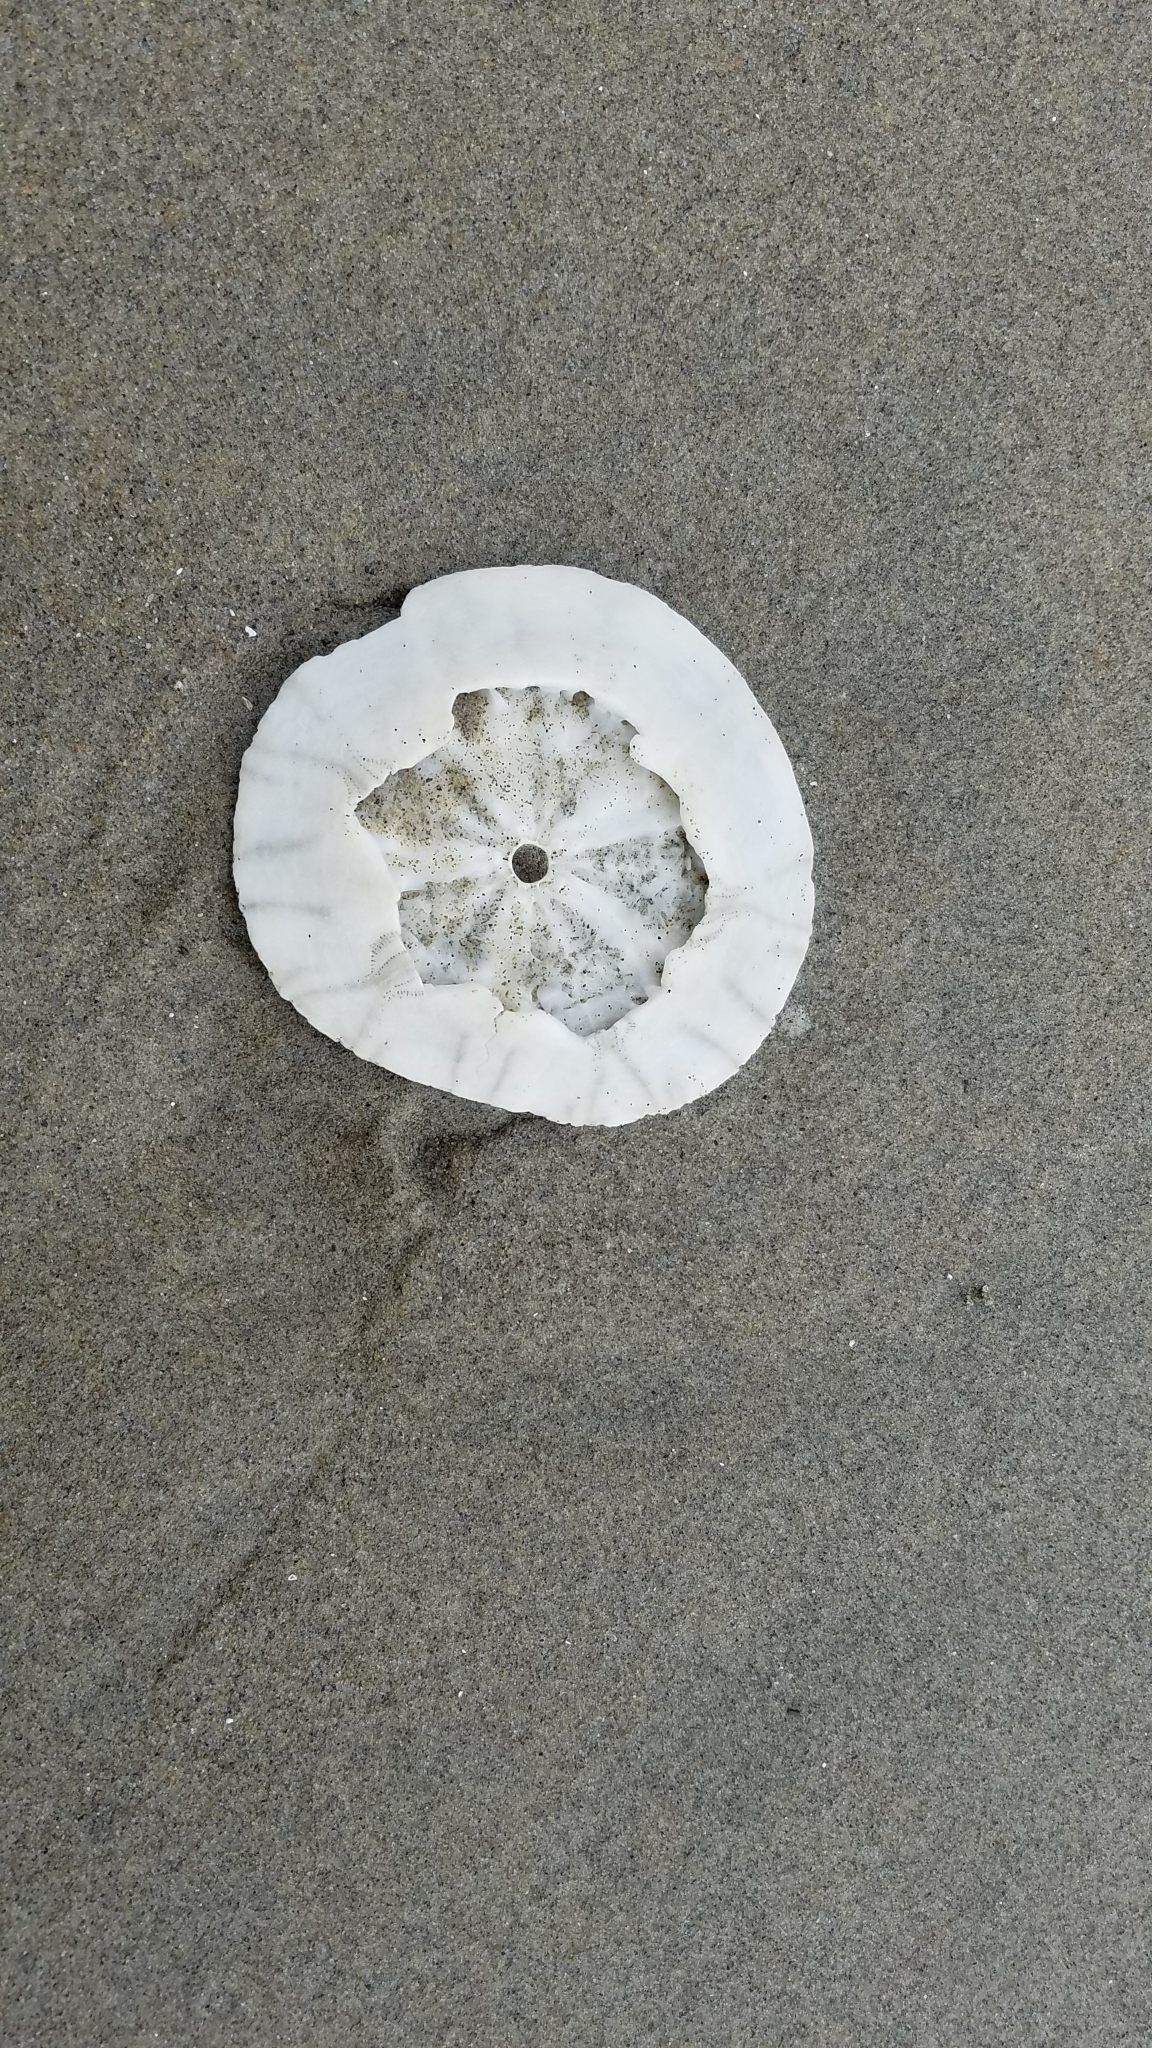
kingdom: Animalia
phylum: Echinodermata
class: Echinoidea
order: Echinolampadacea
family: Dendrasteridae
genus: Dendraster
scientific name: Dendraster excentricus
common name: Eccentric sand dollar sea urchin
